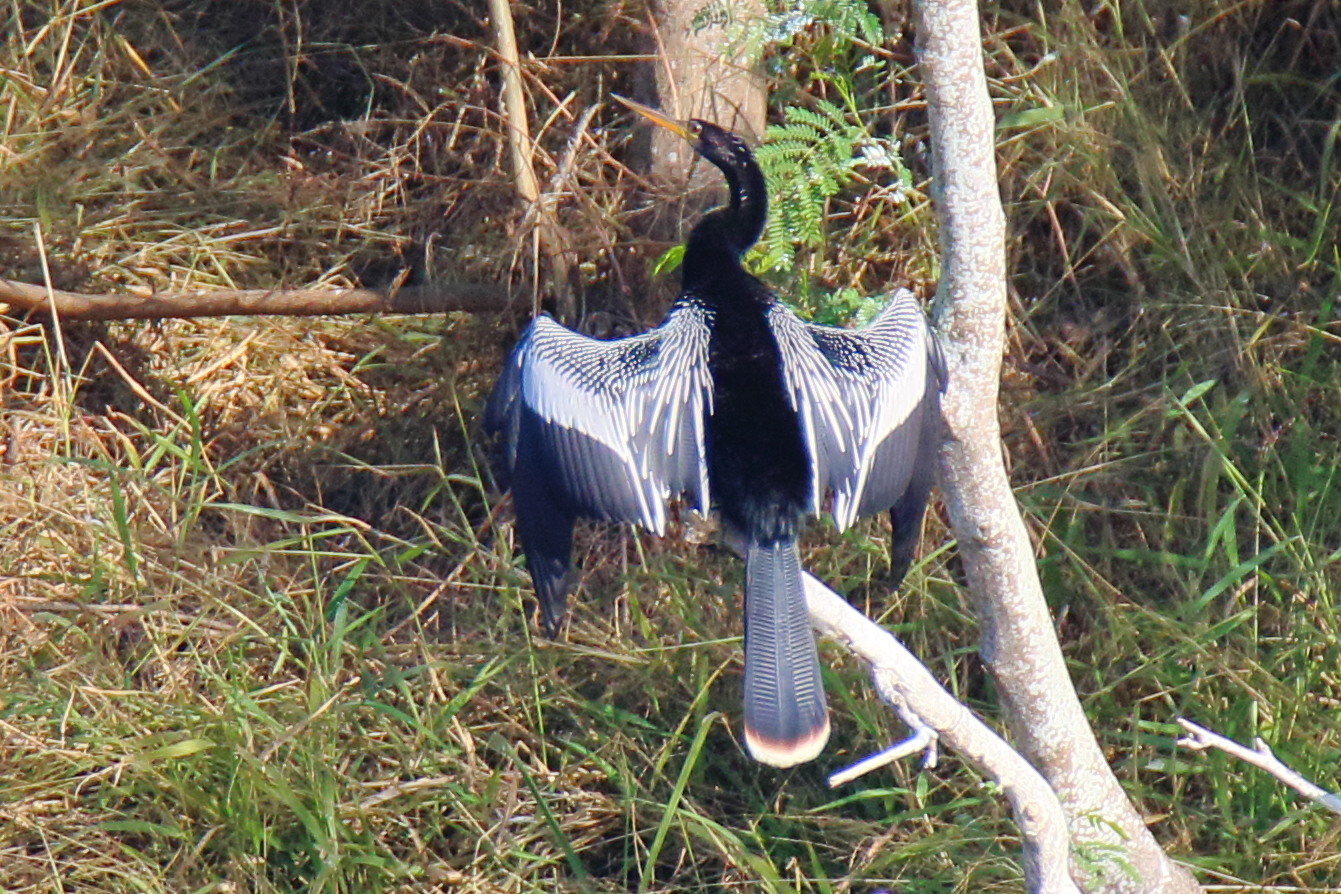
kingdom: Animalia
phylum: Chordata
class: Aves
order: Suliformes
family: Anhingidae
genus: Anhinga
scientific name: Anhinga anhinga
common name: Anhinga
